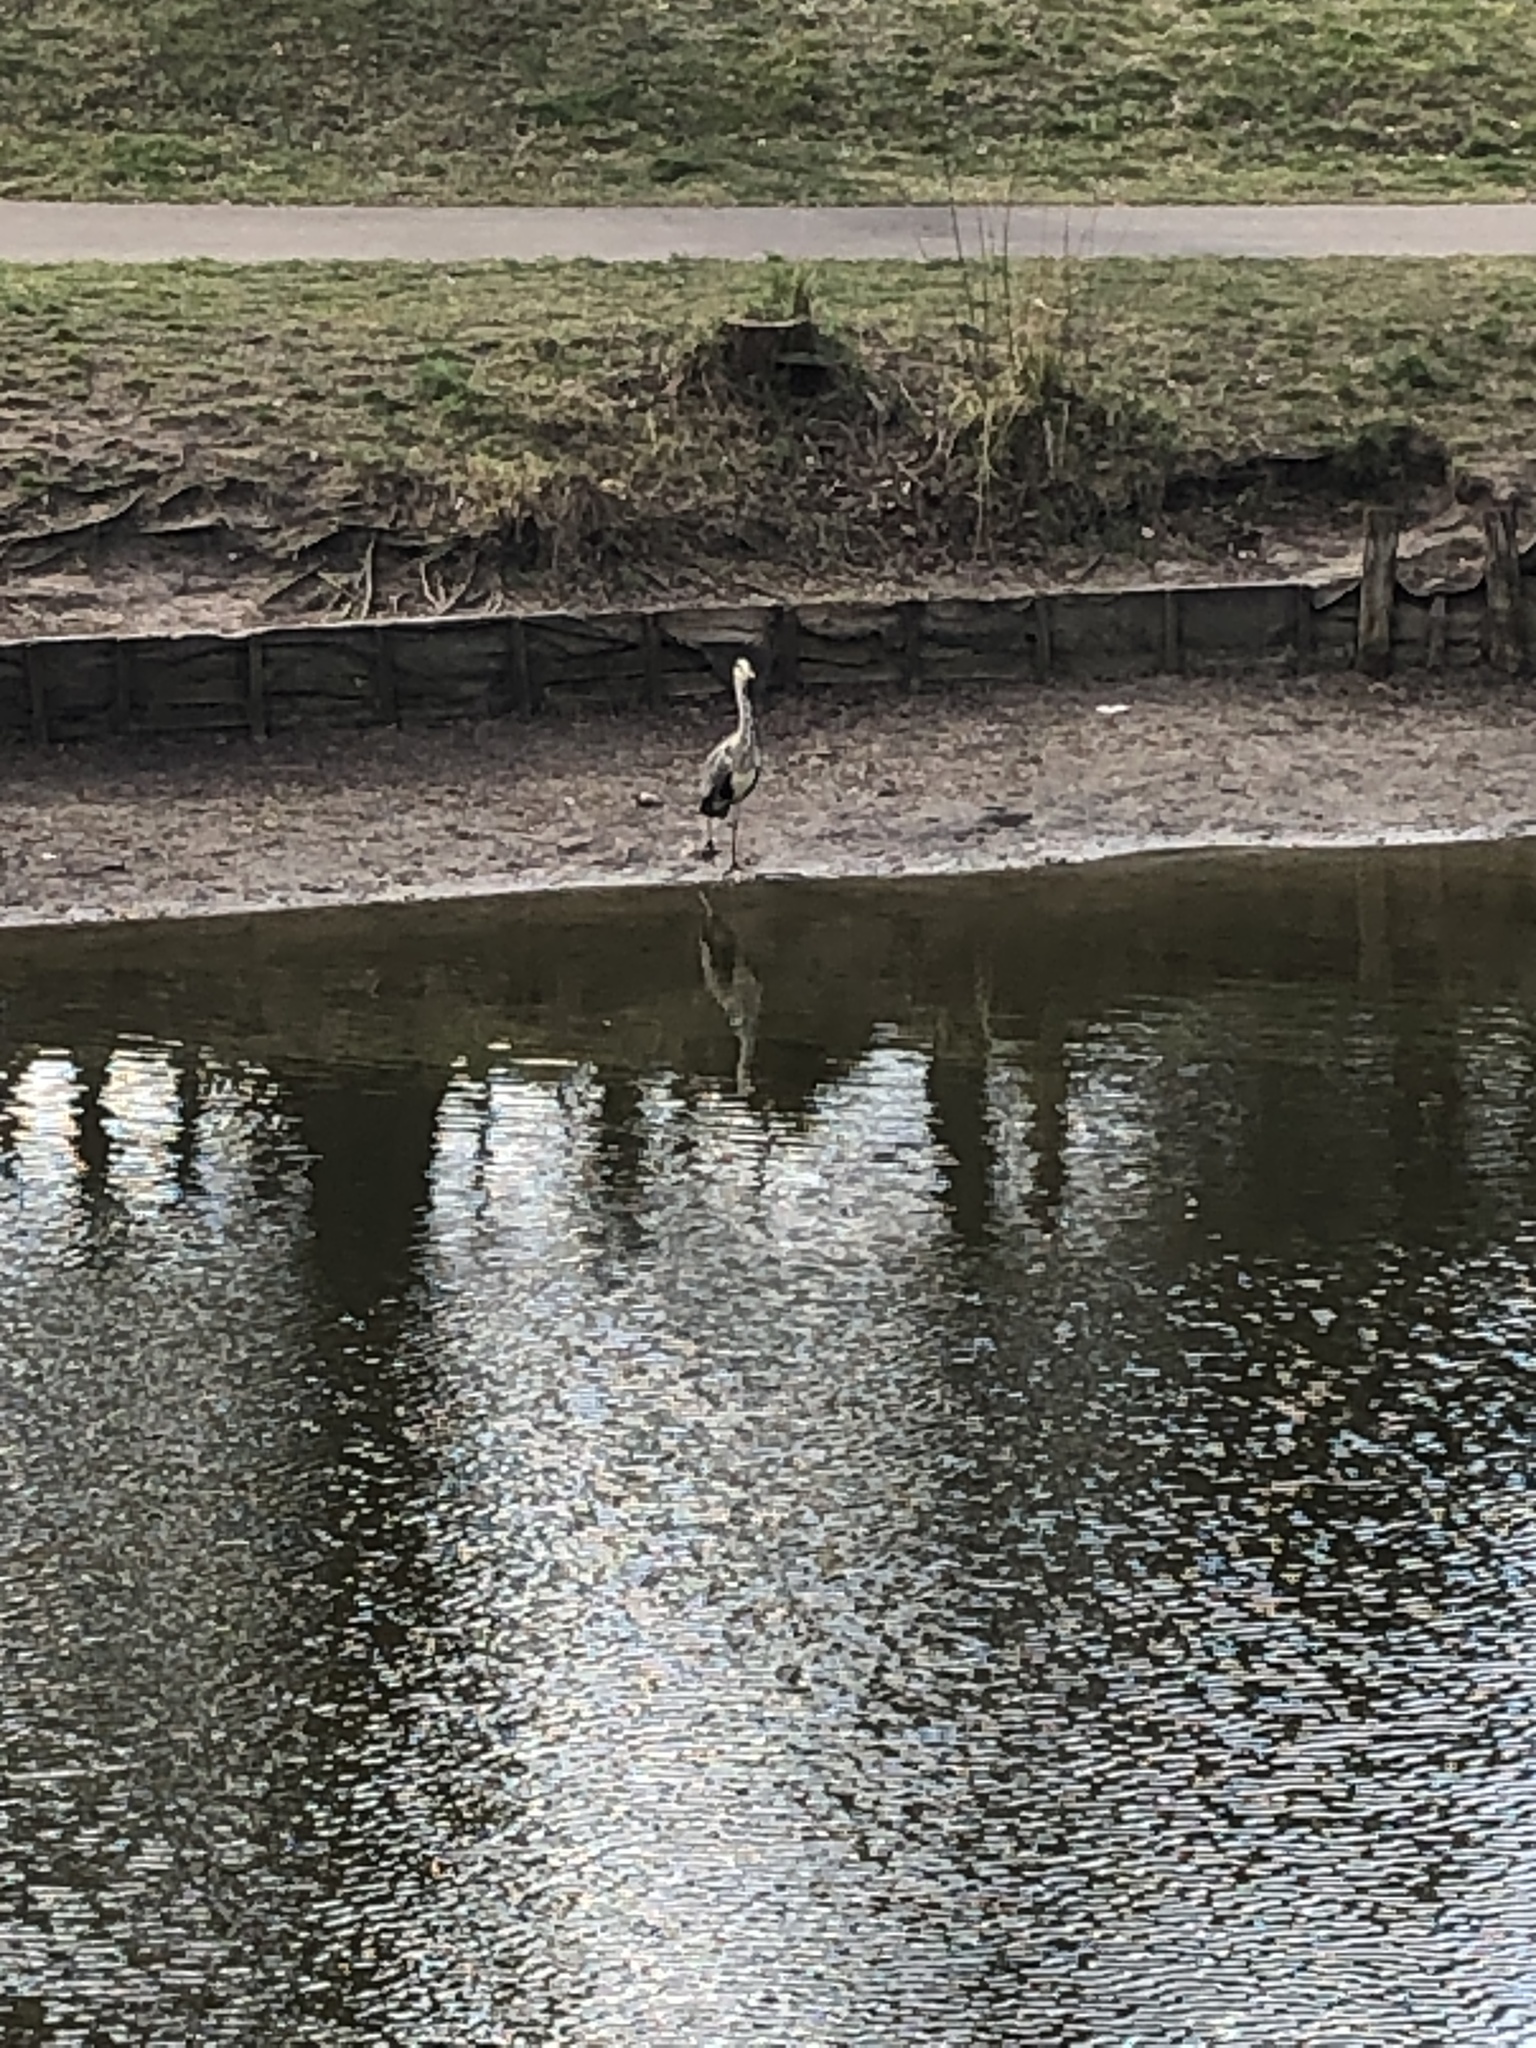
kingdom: Animalia
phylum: Chordata
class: Aves
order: Pelecaniformes
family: Ardeidae
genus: Ardea
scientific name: Ardea cinerea
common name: Grey heron
